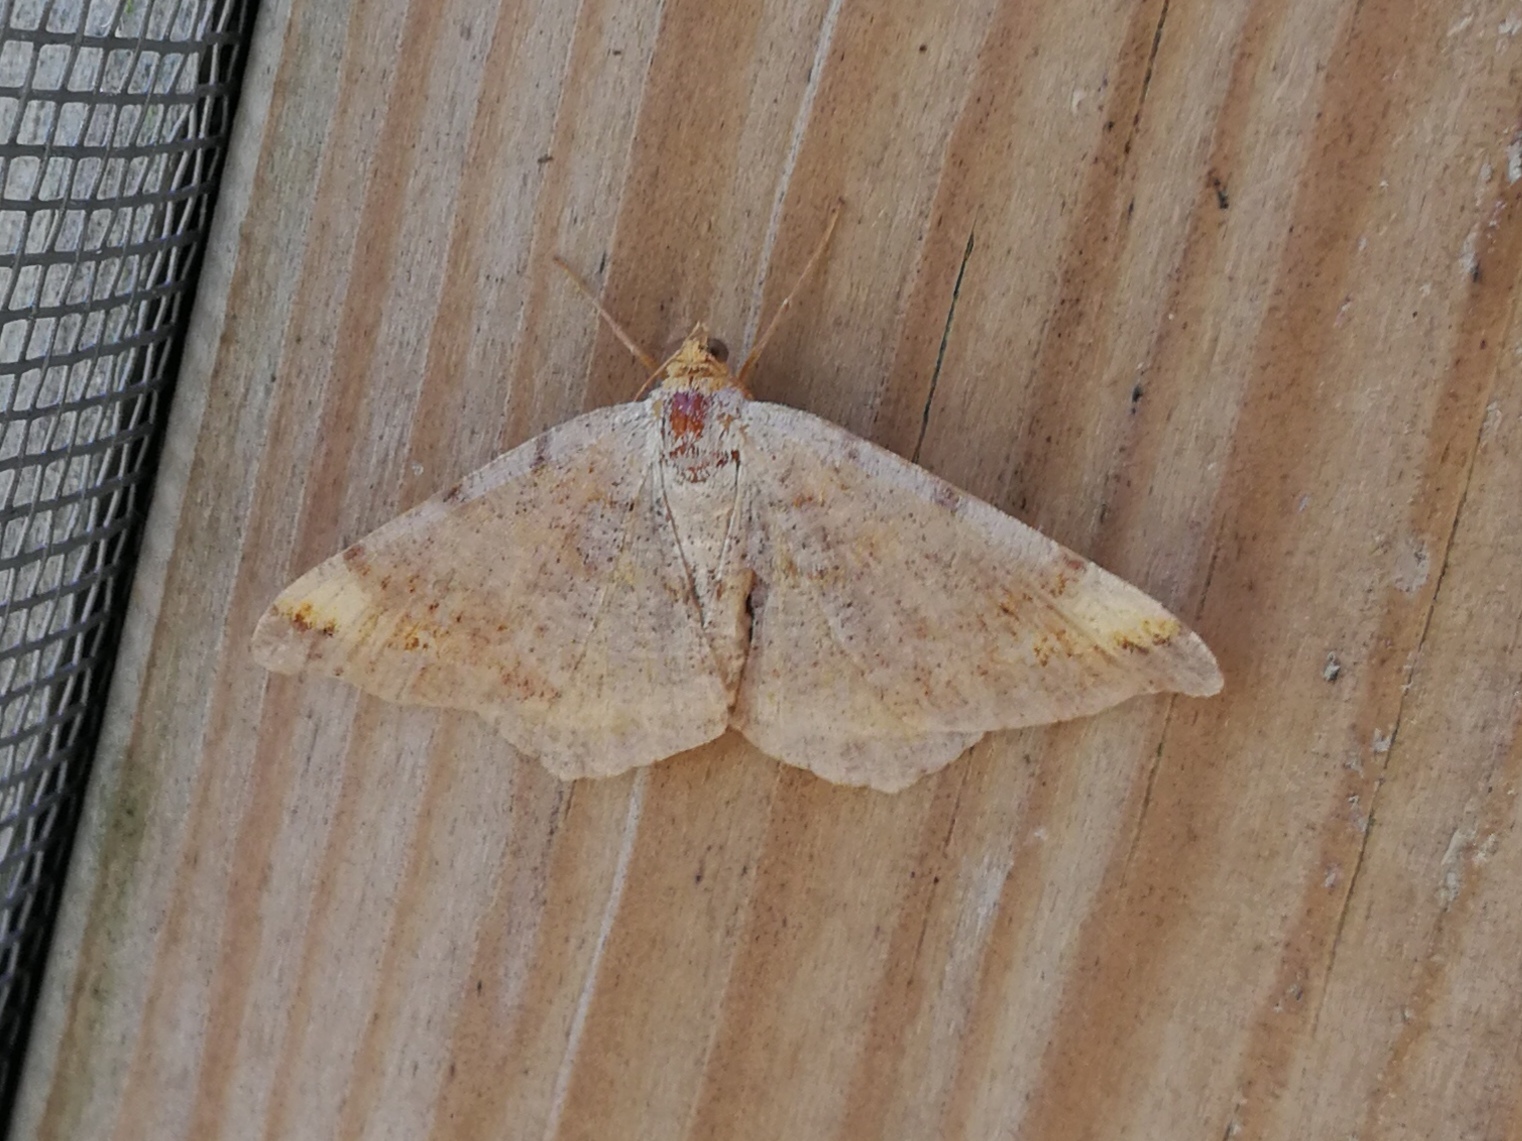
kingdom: Animalia
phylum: Arthropoda
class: Insecta
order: Lepidoptera
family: Geometridae
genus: Macaria
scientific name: Macaria liturata
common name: Tawny-barred angle
